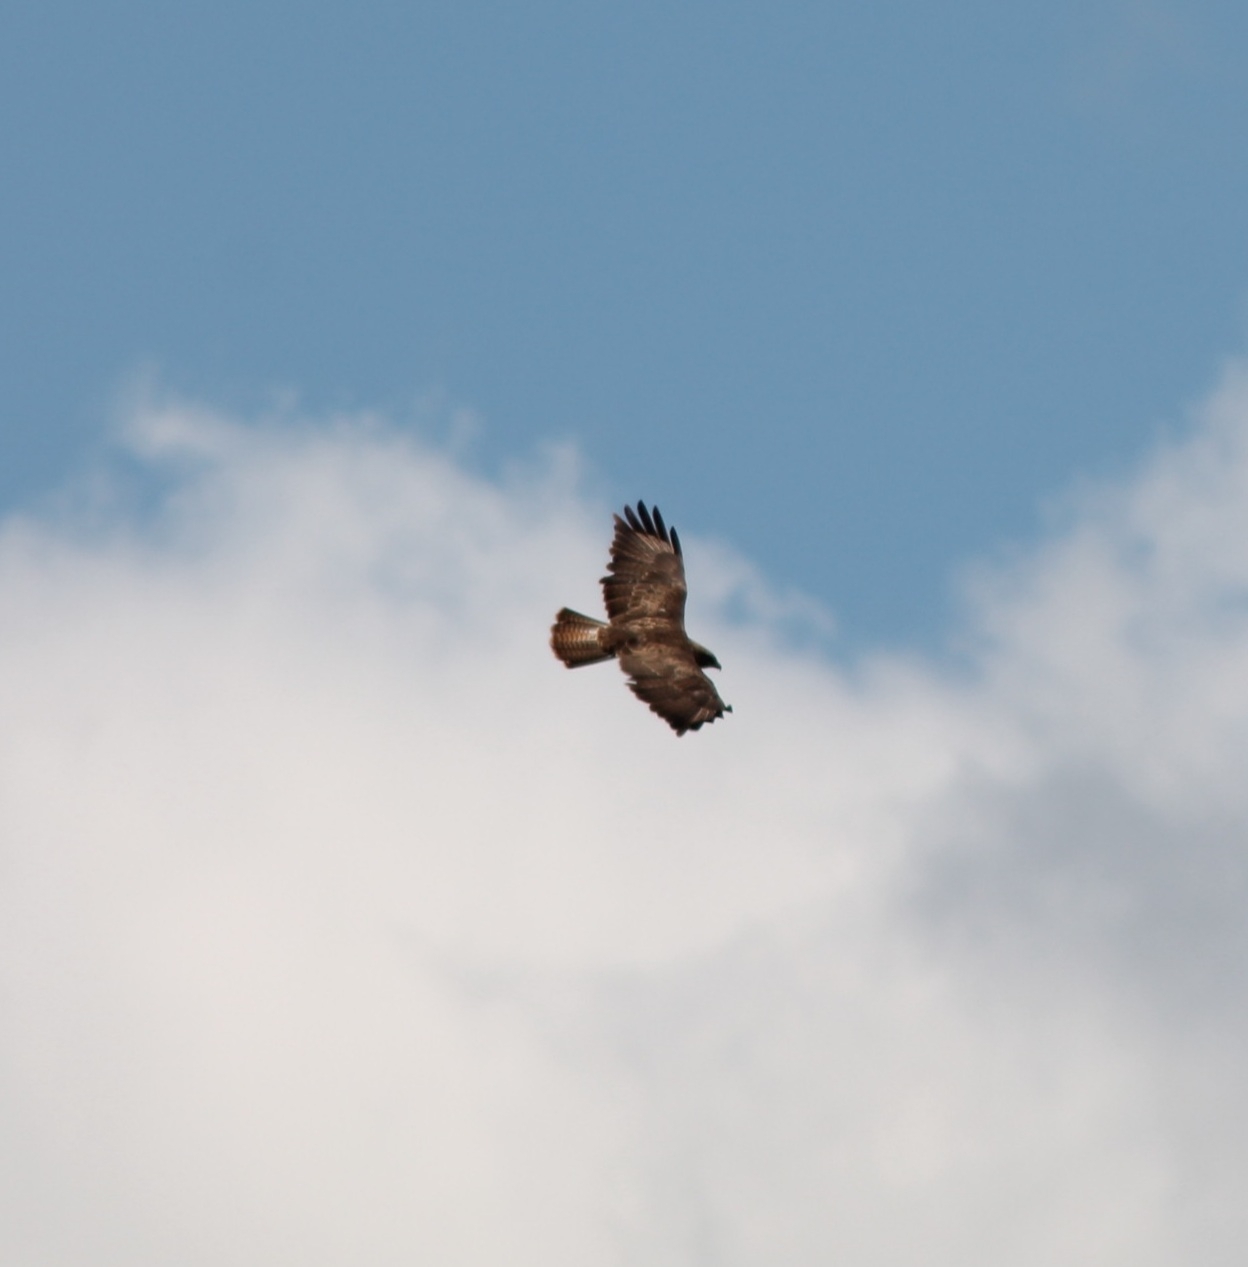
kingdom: Animalia
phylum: Chordata
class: Aves
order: Accipitriformes
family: Accipitridae
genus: Buteo
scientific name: Buteo buteo
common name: Common buzzard
